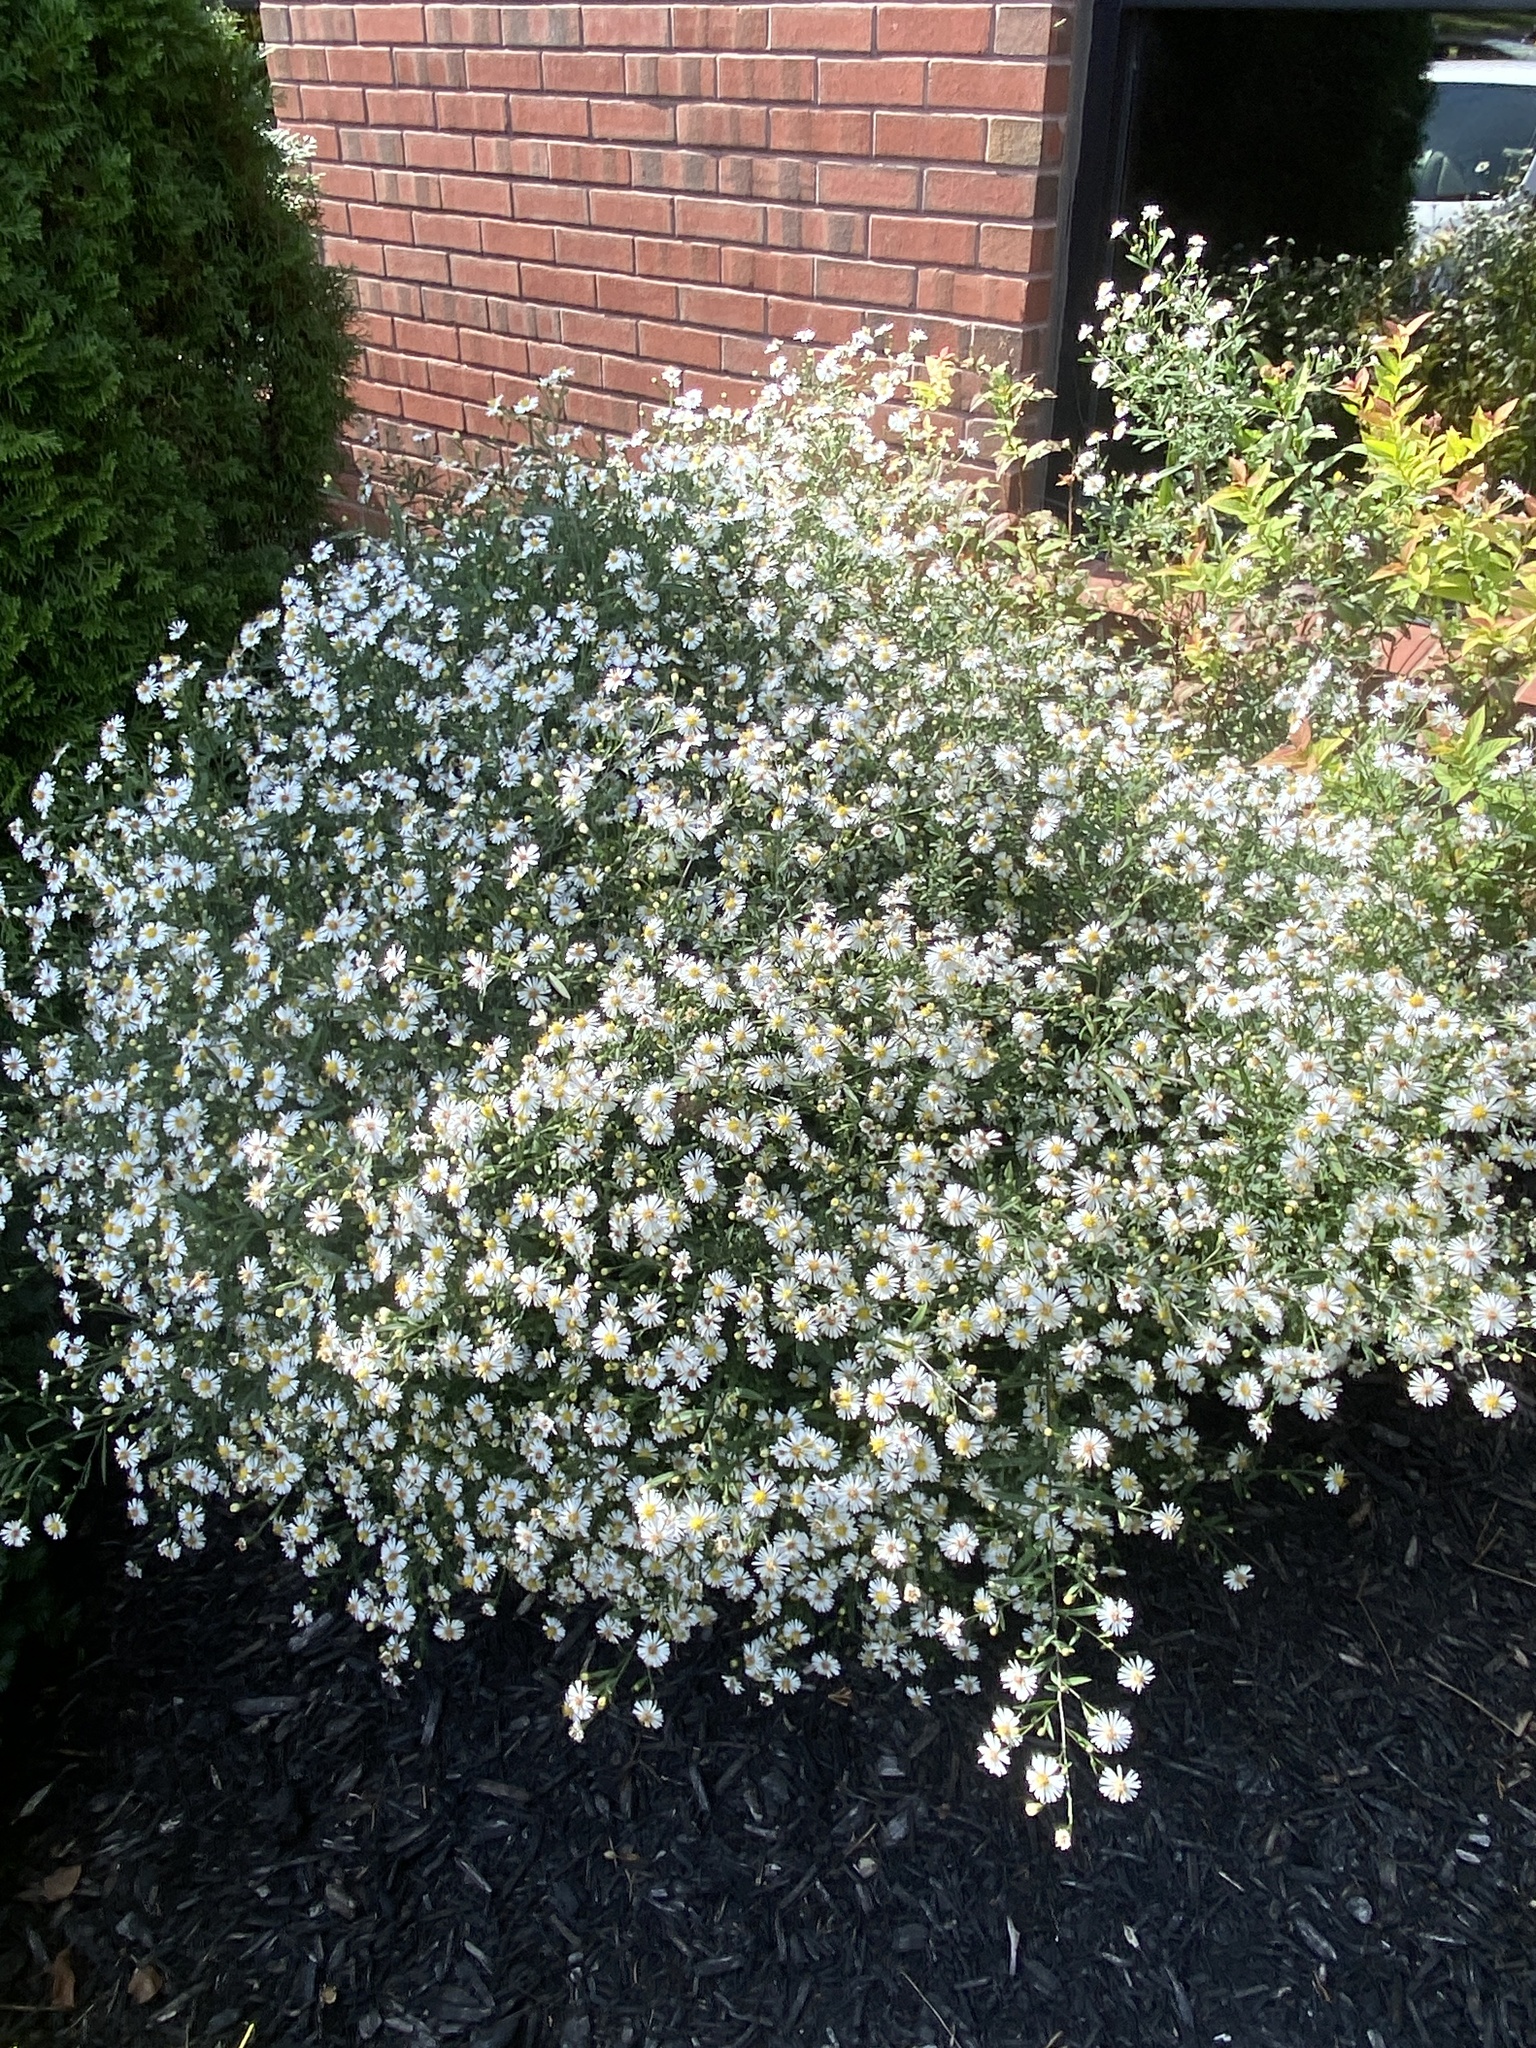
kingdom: Plantae
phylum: Tracheophyta
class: Magnoliopsida
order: Asterales
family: Asteraceae
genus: Symphyotrichum
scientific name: Symphyotrichum lanceolatum
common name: Panicled aster
